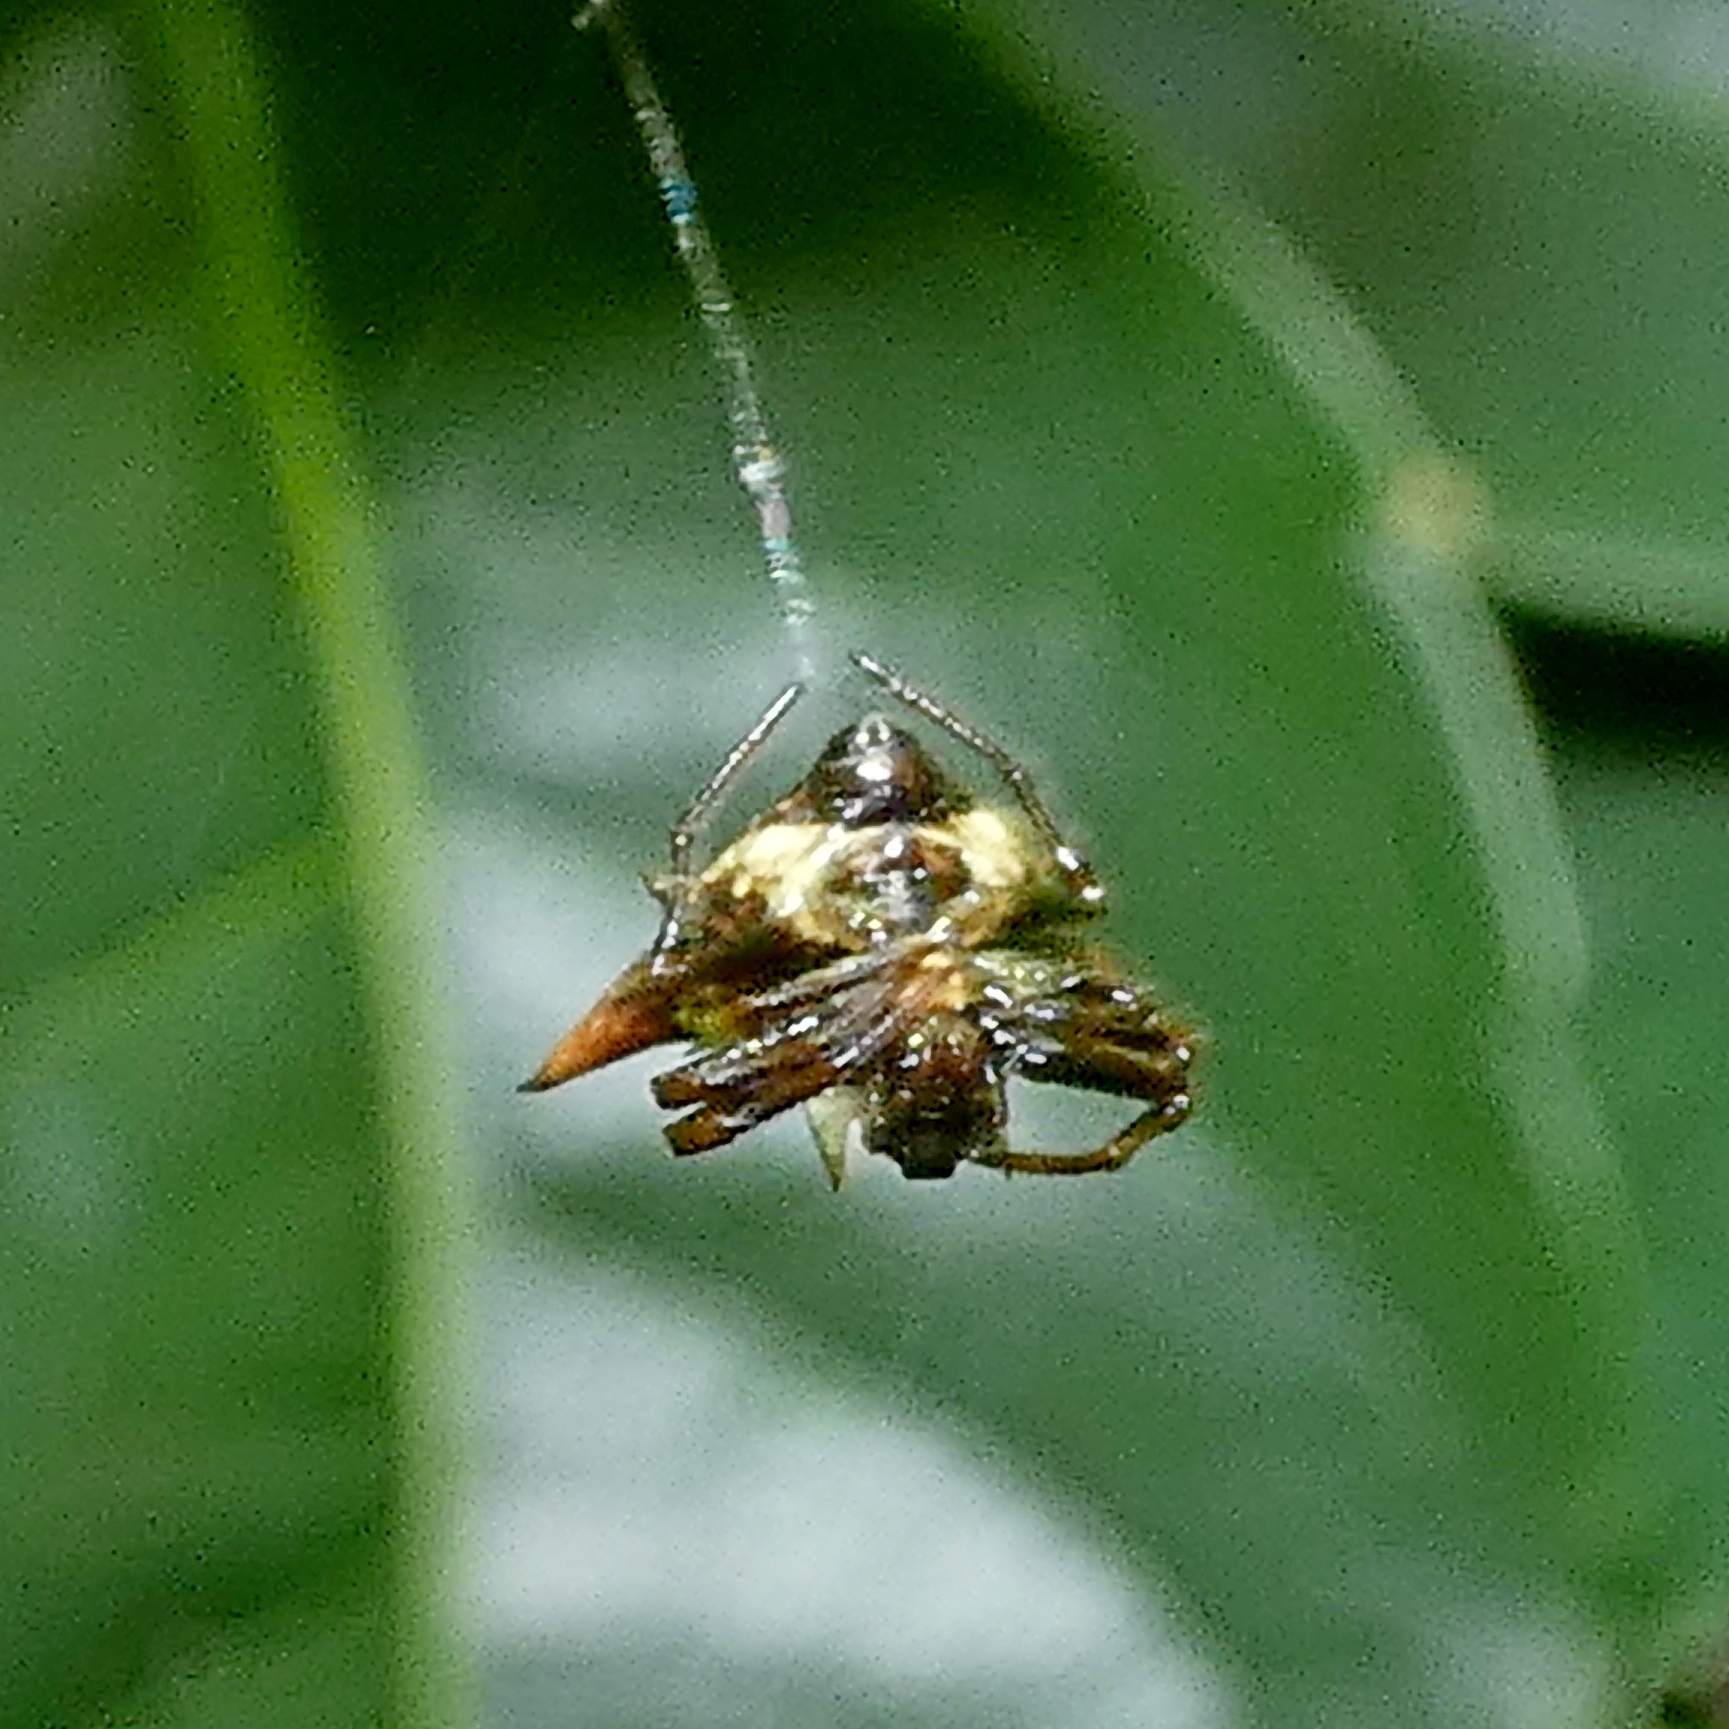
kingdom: Animalia
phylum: Arthropoda
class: Arachnida
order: Araneae
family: Araneidae
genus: Micrathena
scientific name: Micrathena evansi
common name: Orb weavers
